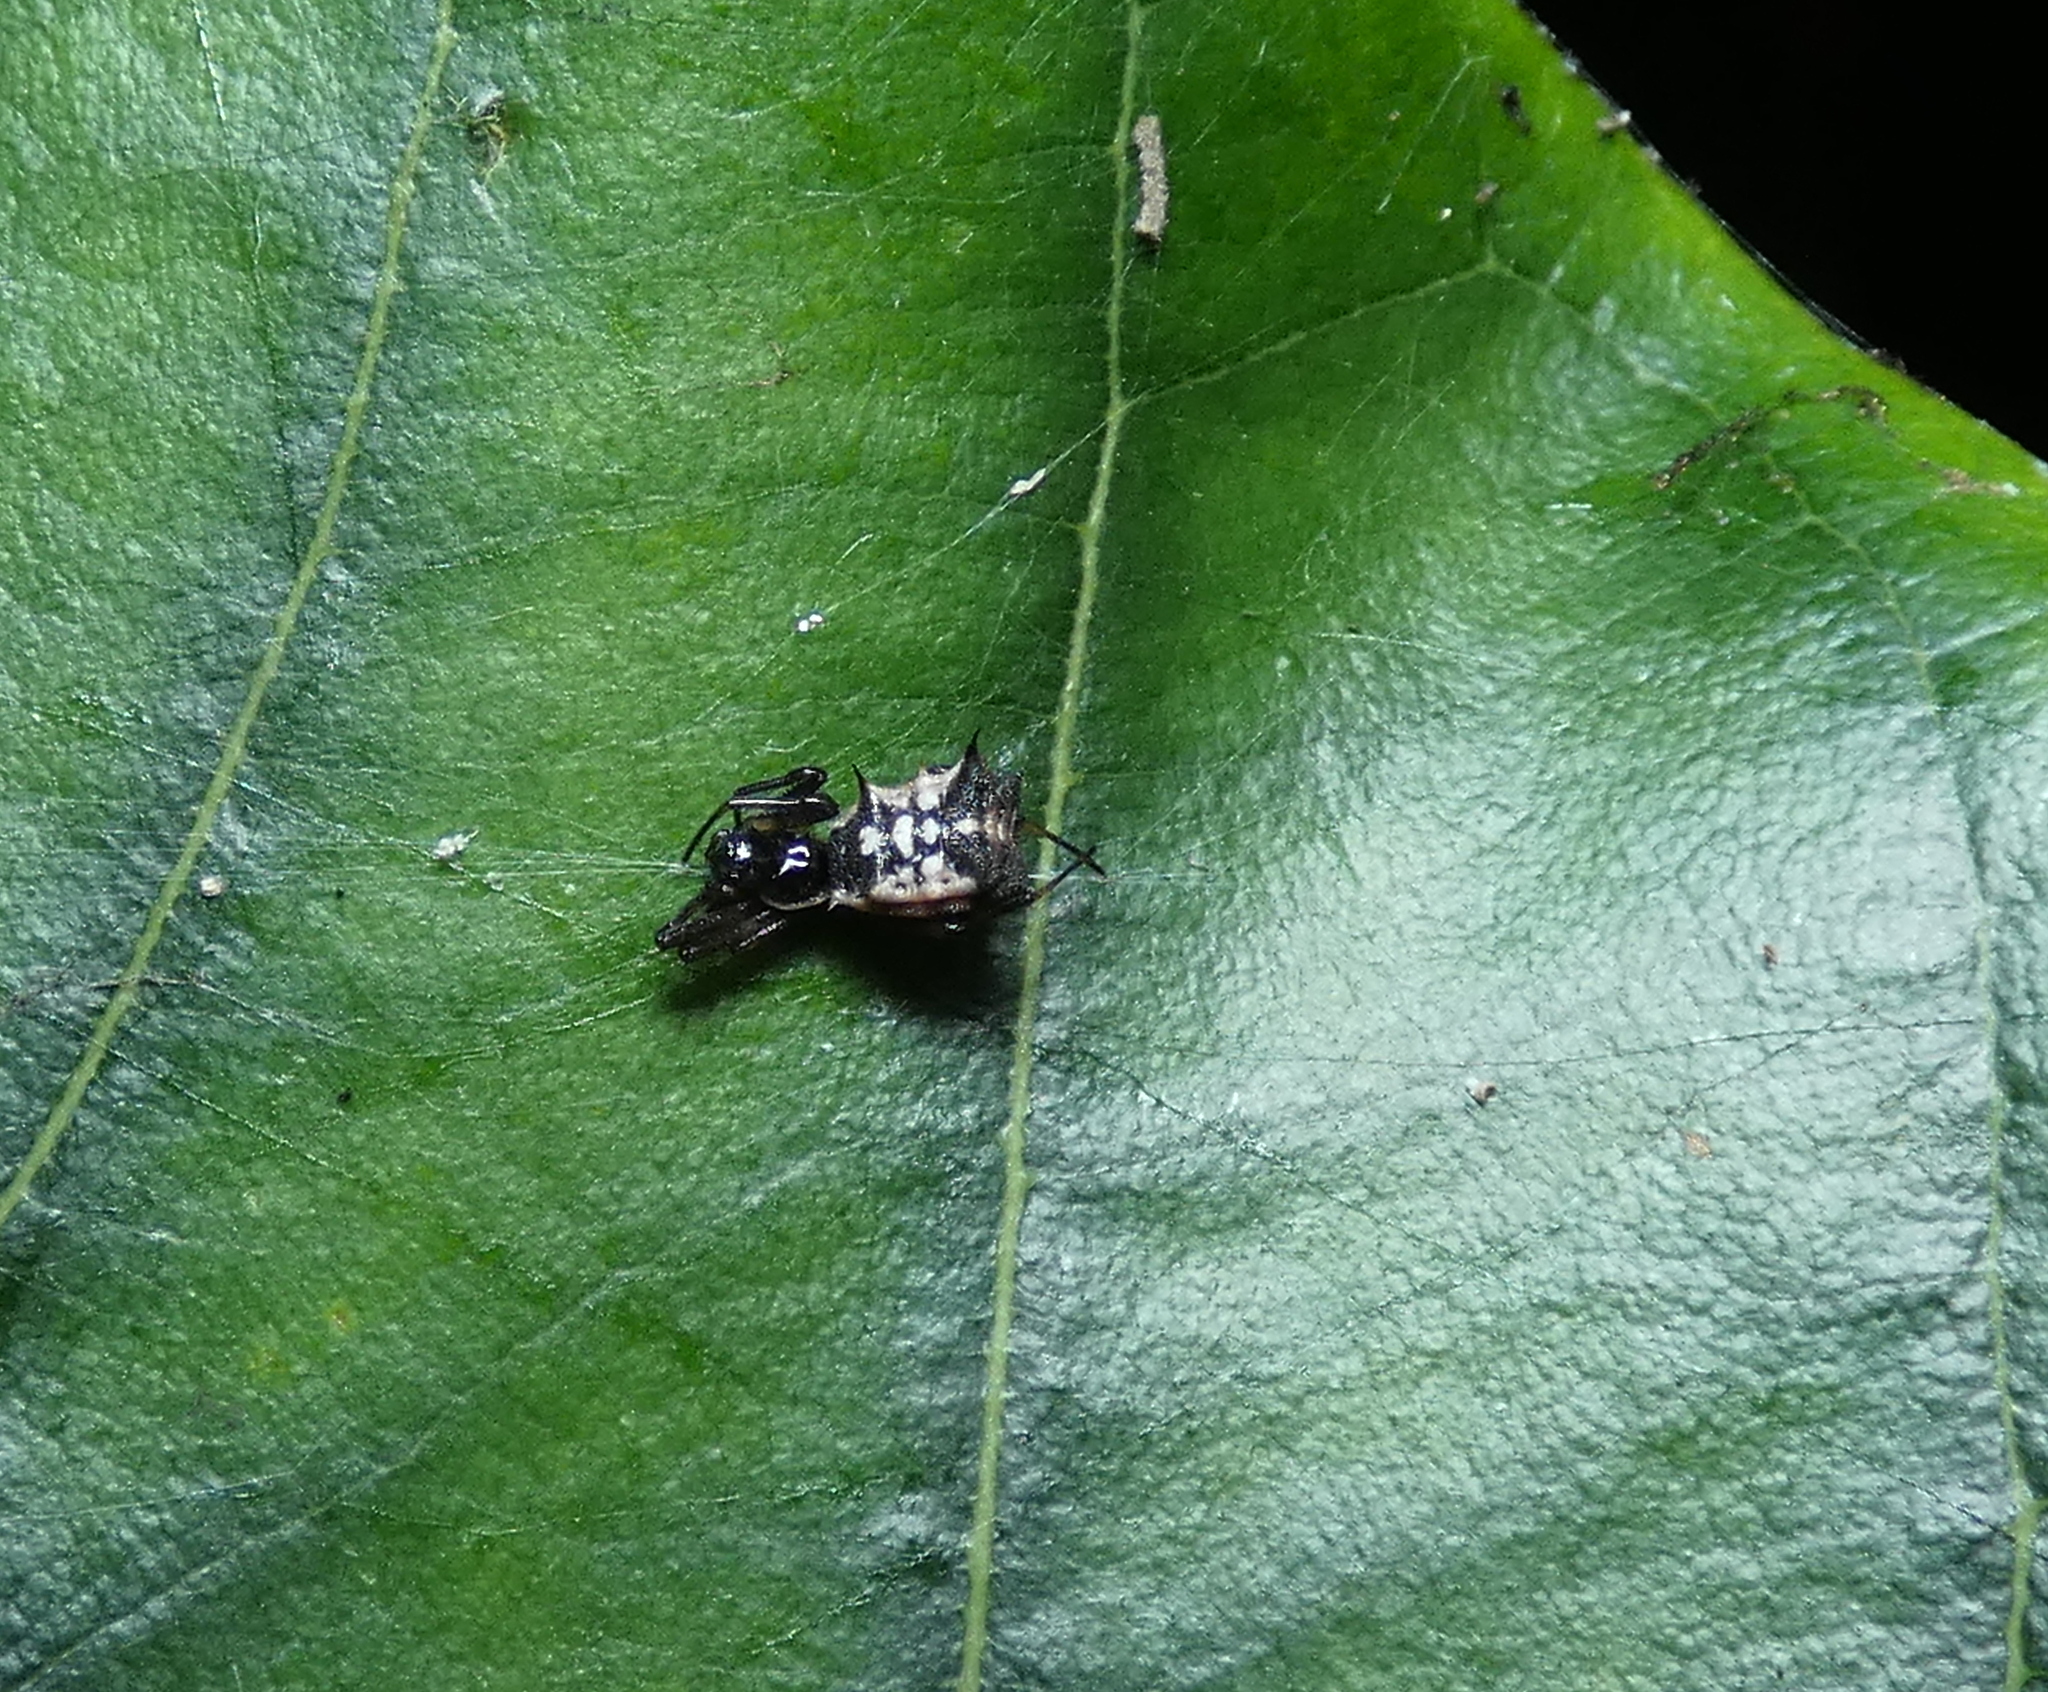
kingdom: Animalia
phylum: Arthropoda
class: Arachnida
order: Araneae
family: Araneidae
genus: Micrathena
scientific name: Micrathena picta
